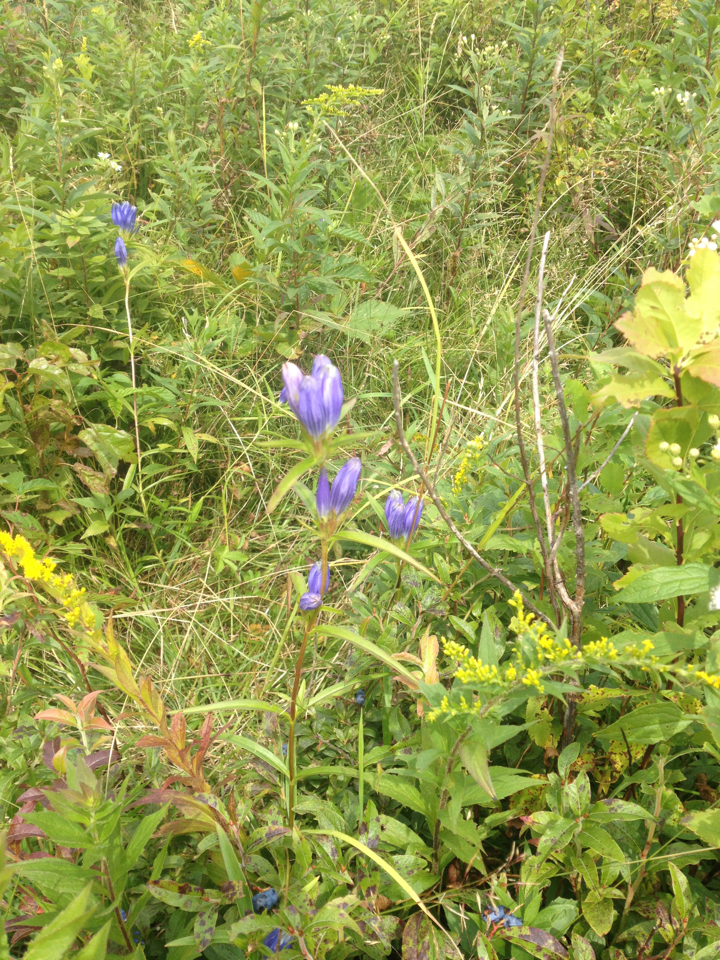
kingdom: Plantae
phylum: Tracheophyta
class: Magnoliopsida
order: Gentianales
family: Gentianaceae
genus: Gentiana
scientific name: Gentiana linearis
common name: Bastard gentian
